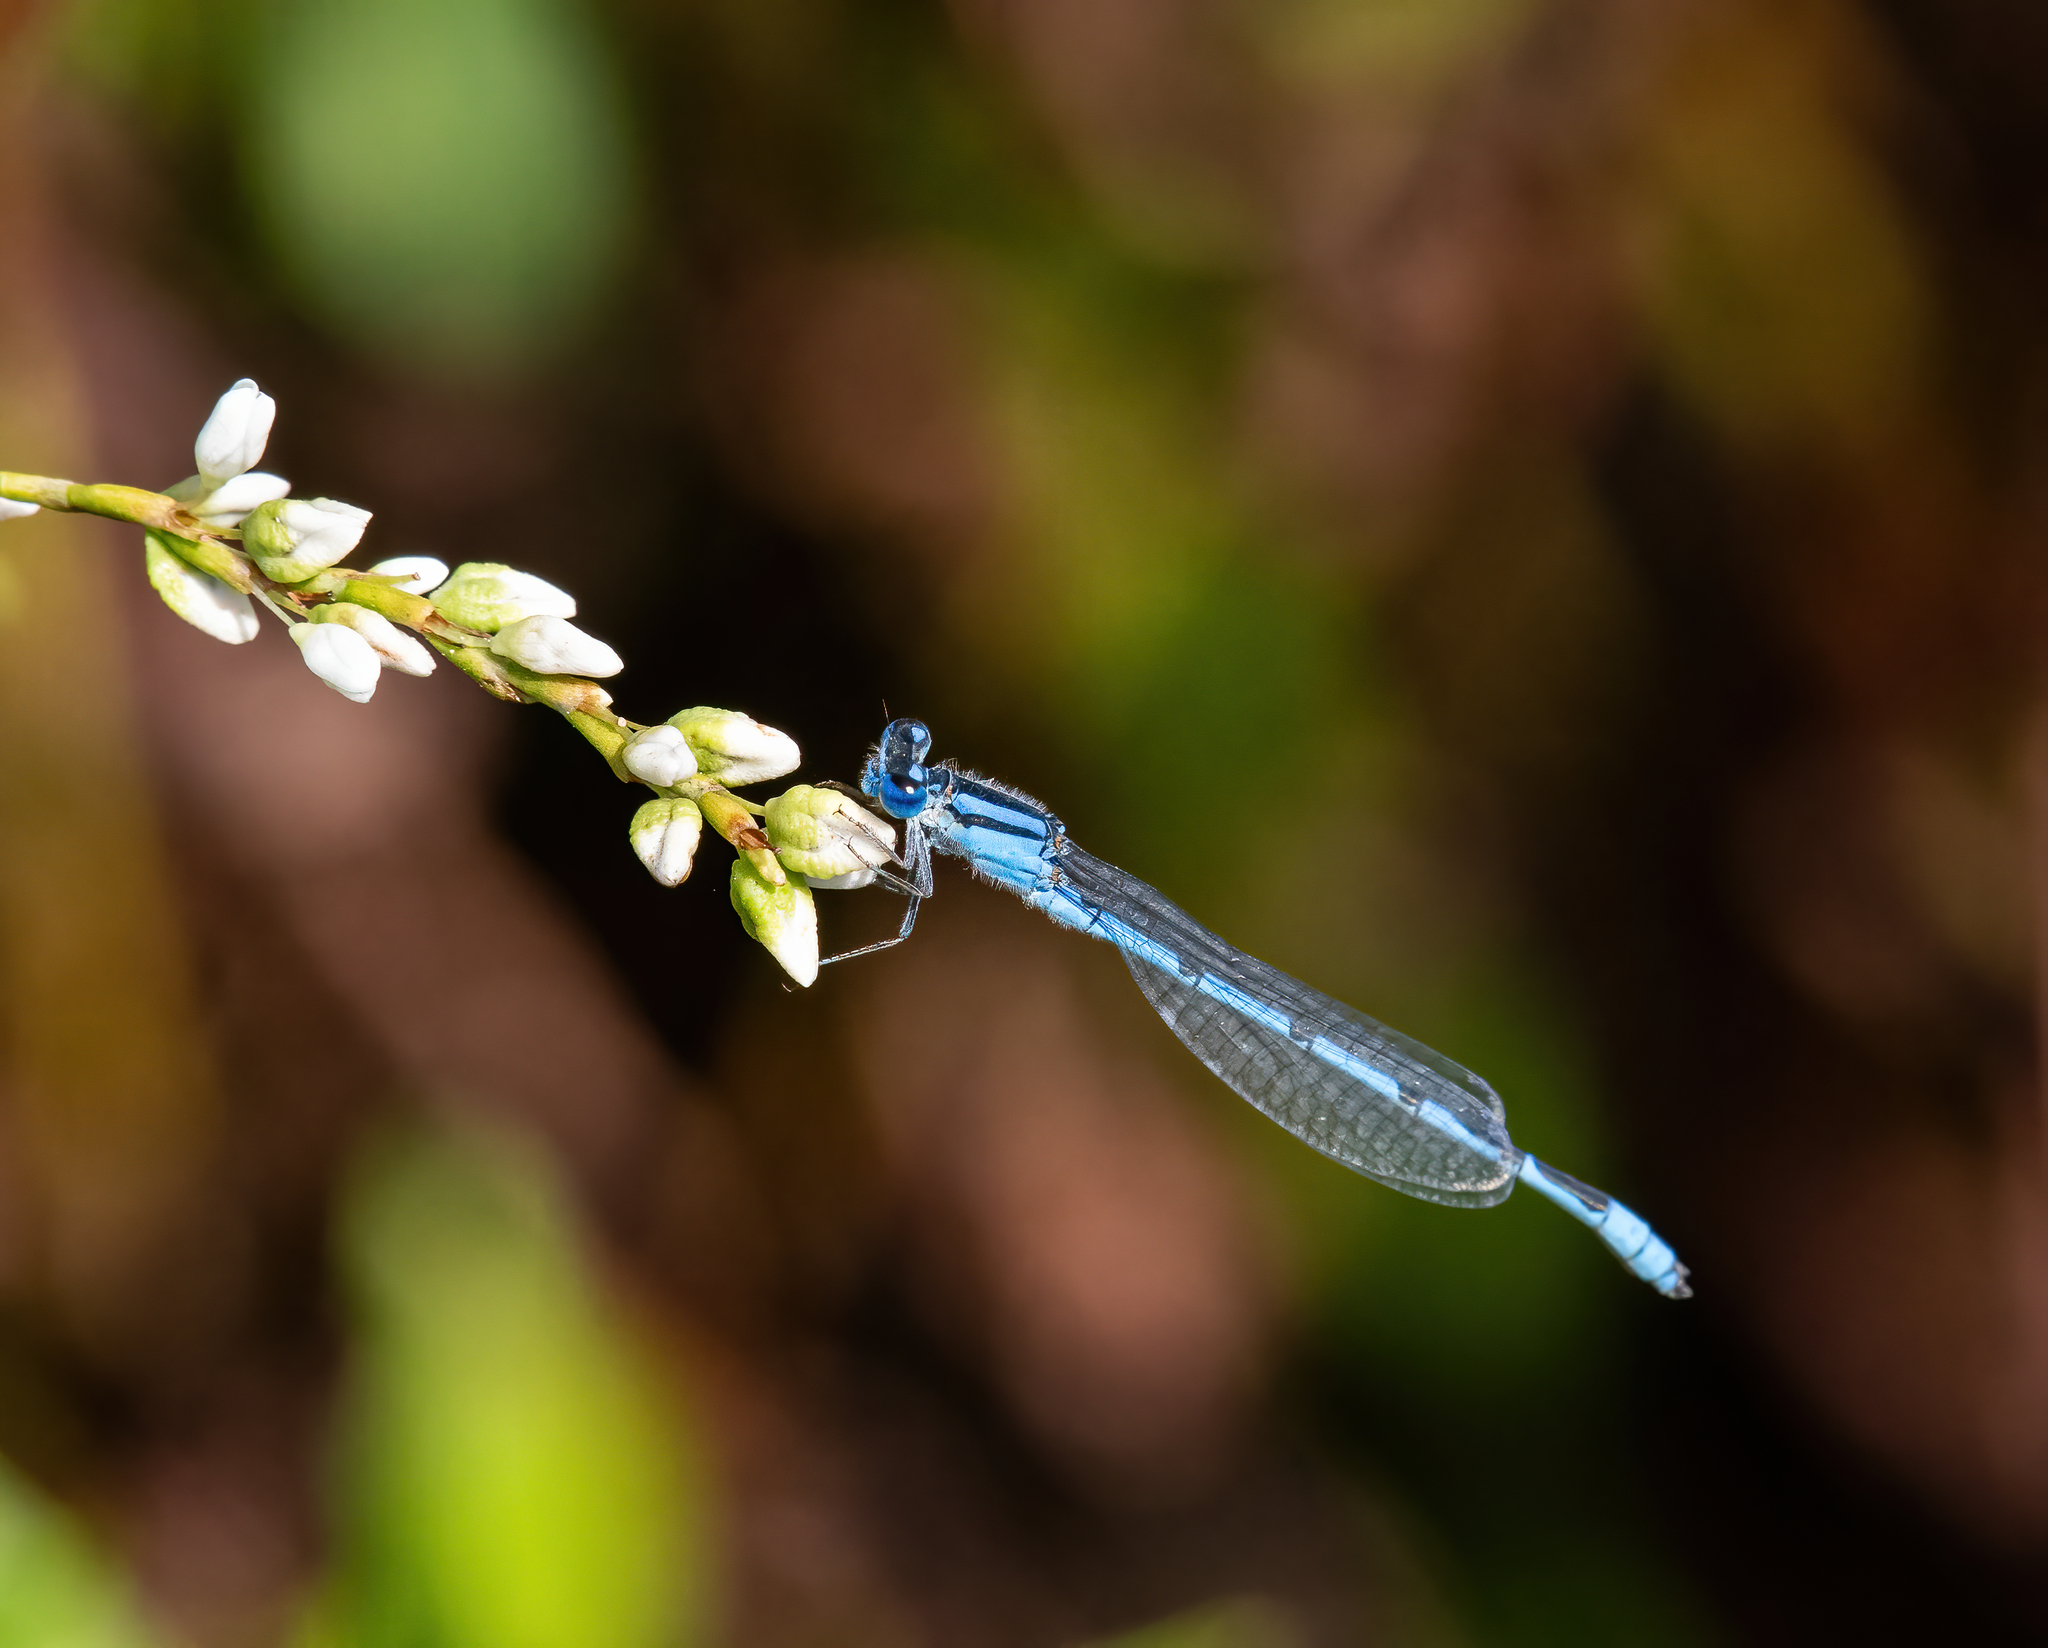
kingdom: Animalia
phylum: Arthropoda
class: Insecta
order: Odonata
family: Coenagrionidae
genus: Enallagma
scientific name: Enallagma civile
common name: Damselfly
